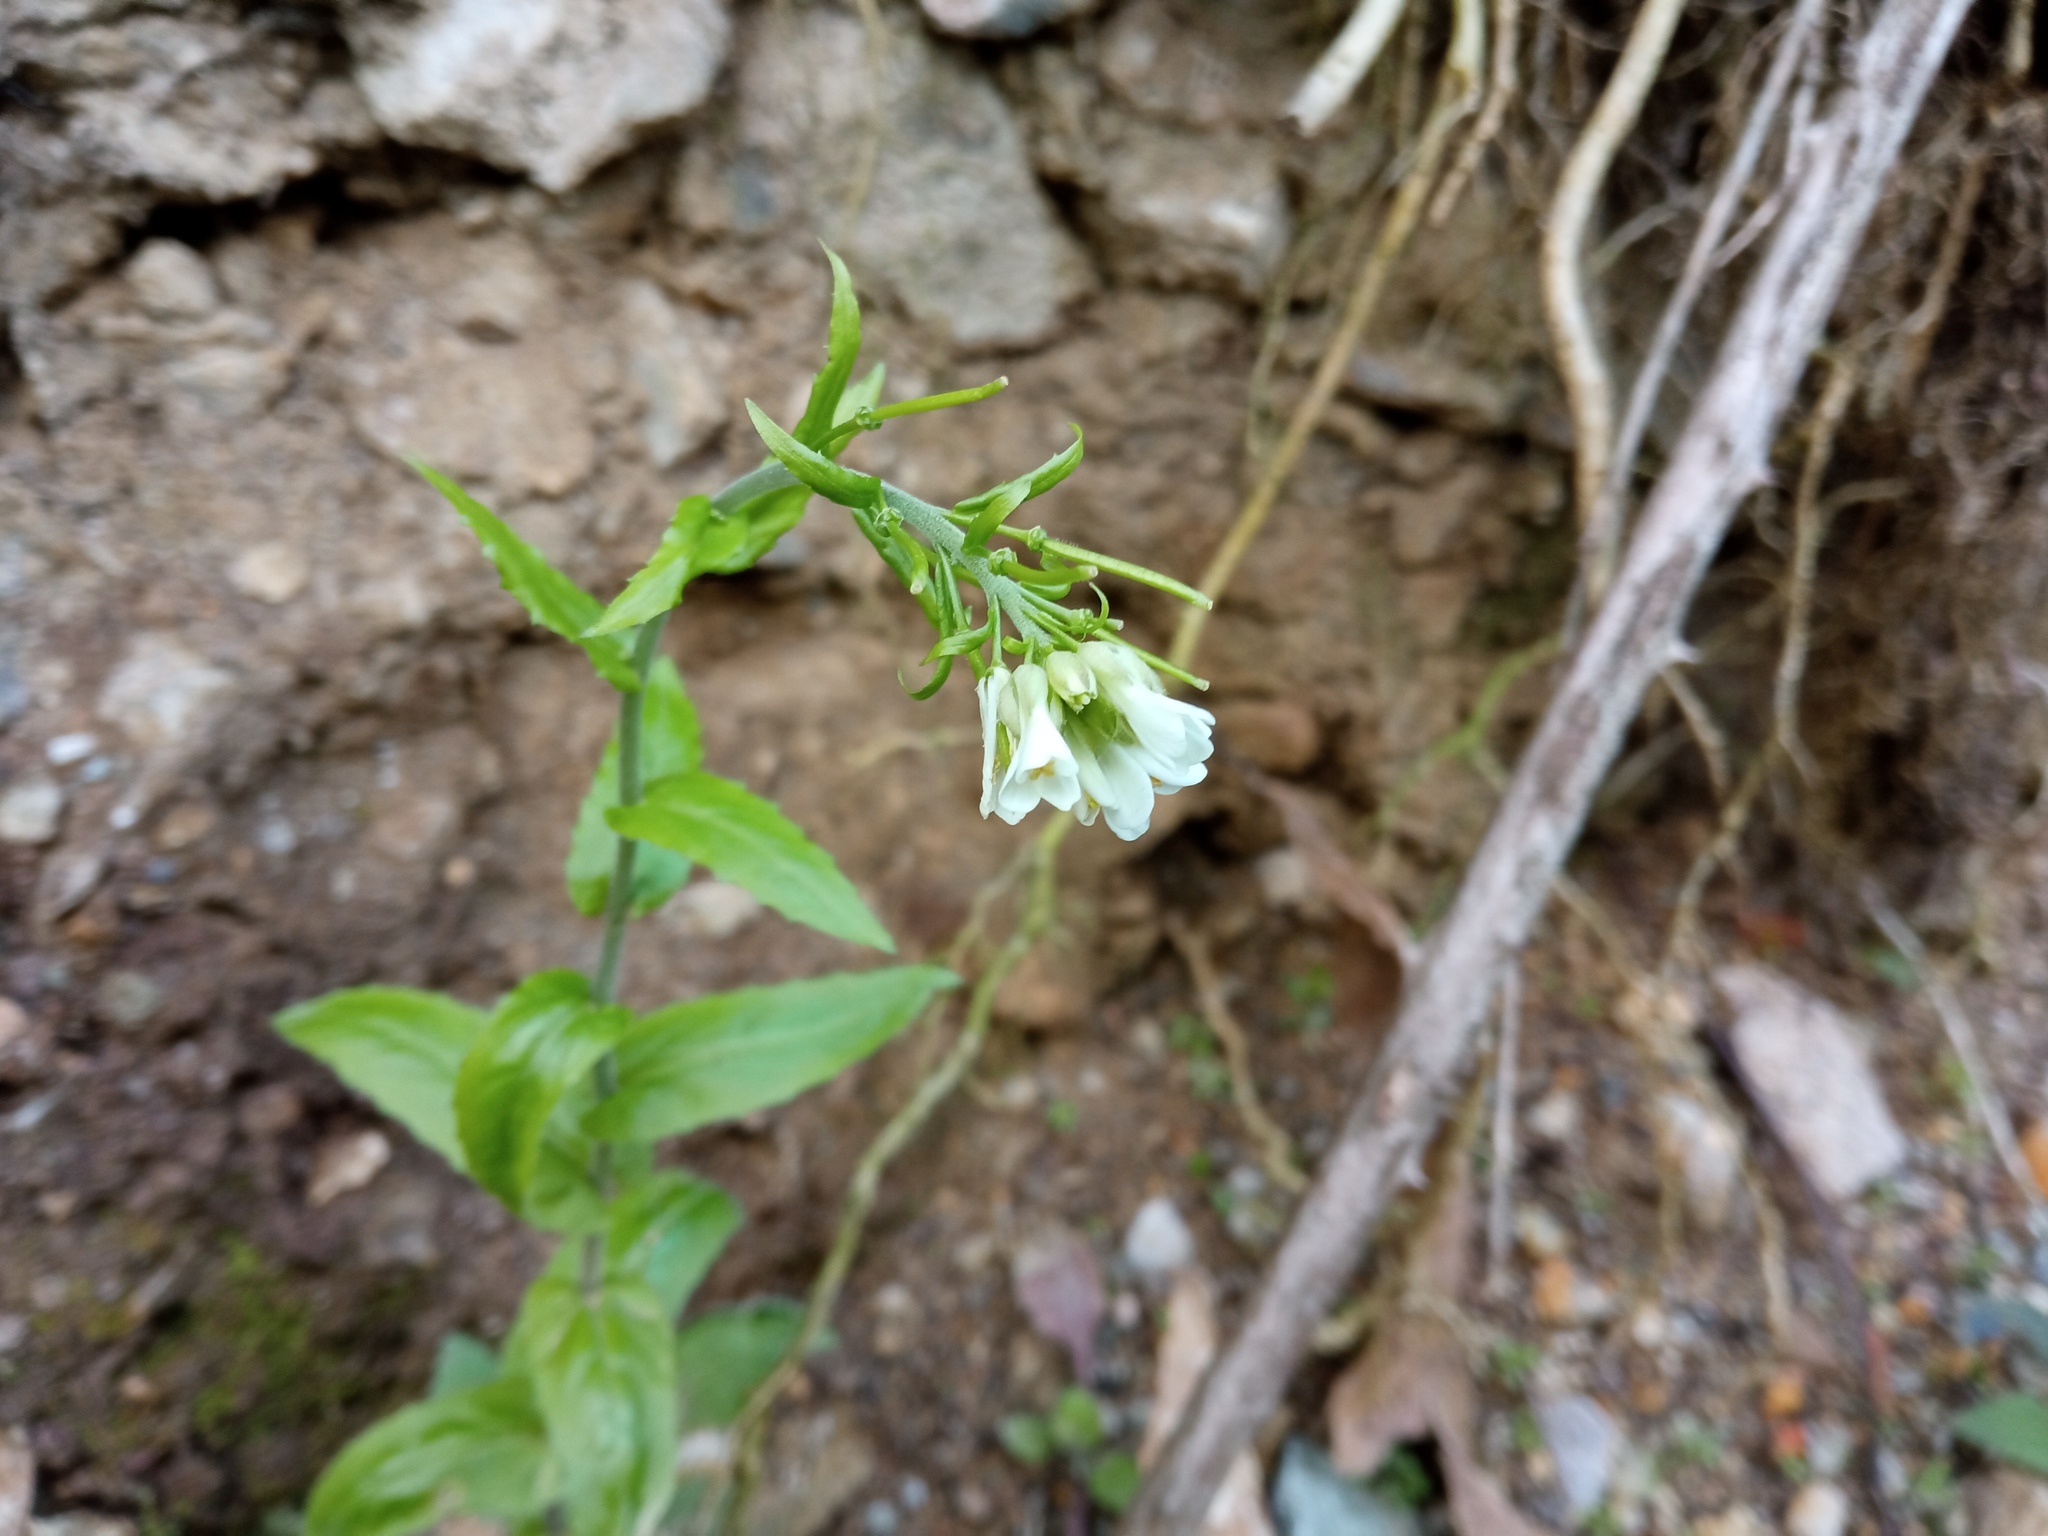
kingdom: Plantae
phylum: Tracheophyta
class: Magnoliopsida
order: Brassicales
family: Brassicaceae
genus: Pseudoturritis
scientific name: Pseudoturritis turrita
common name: Tower cress
